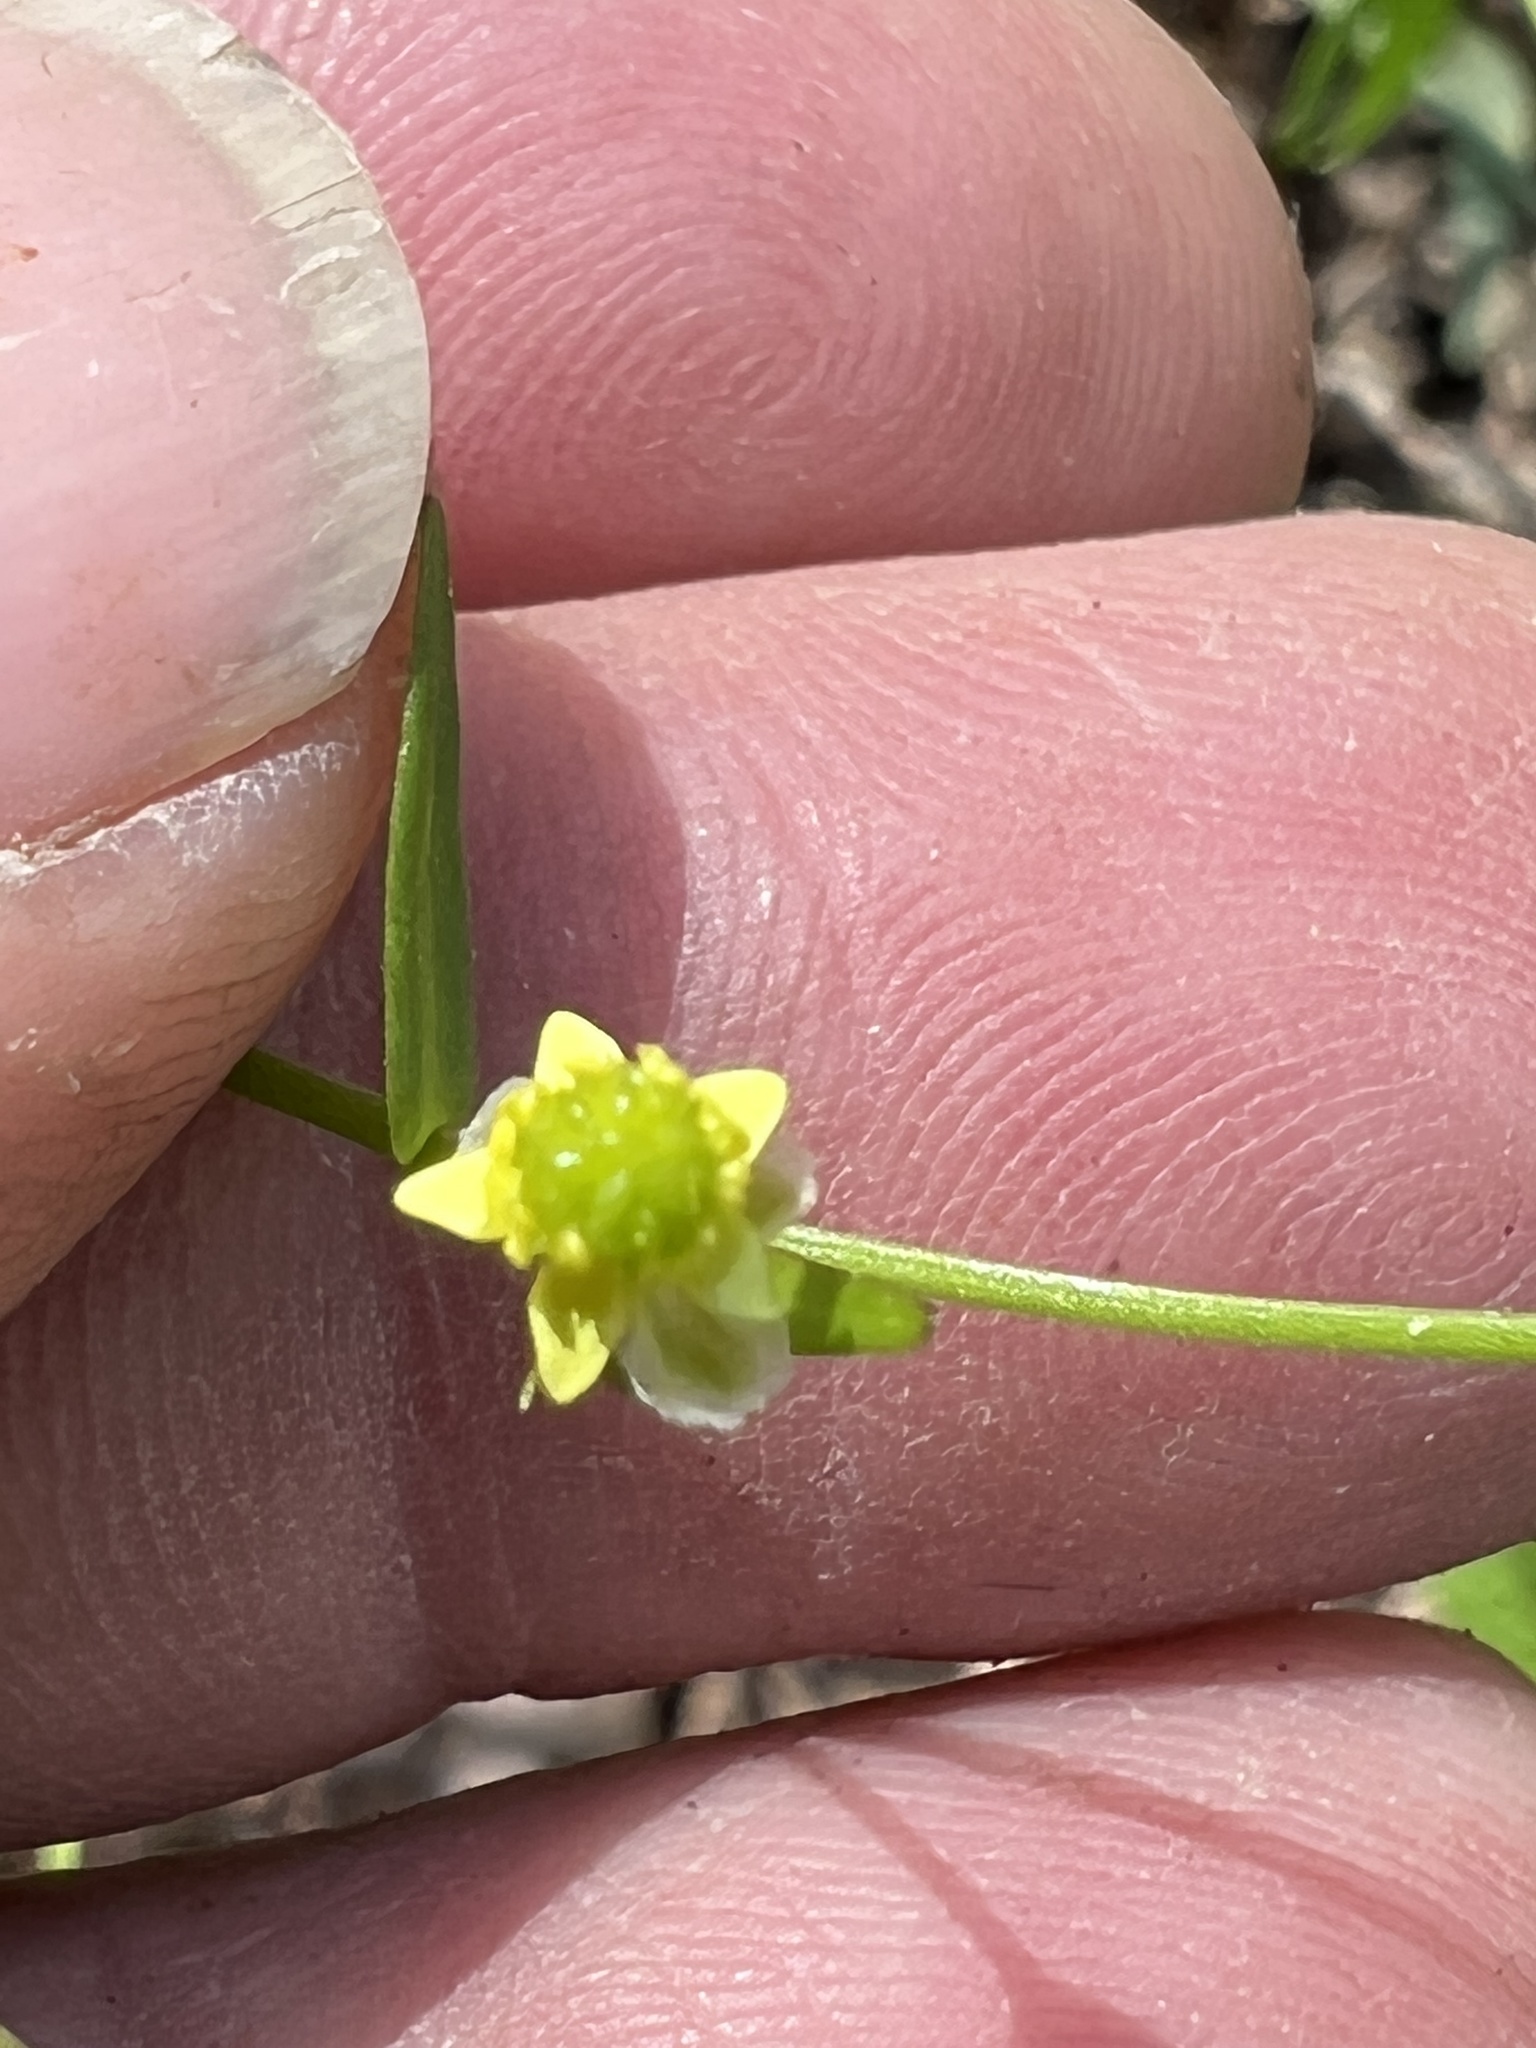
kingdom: Plantae
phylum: Tracheophyta
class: Magnoliopsida
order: Ranunculales
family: Ranunculaceae
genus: Ranunculus
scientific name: Ranunculus abortivus
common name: Early wood buttercup
